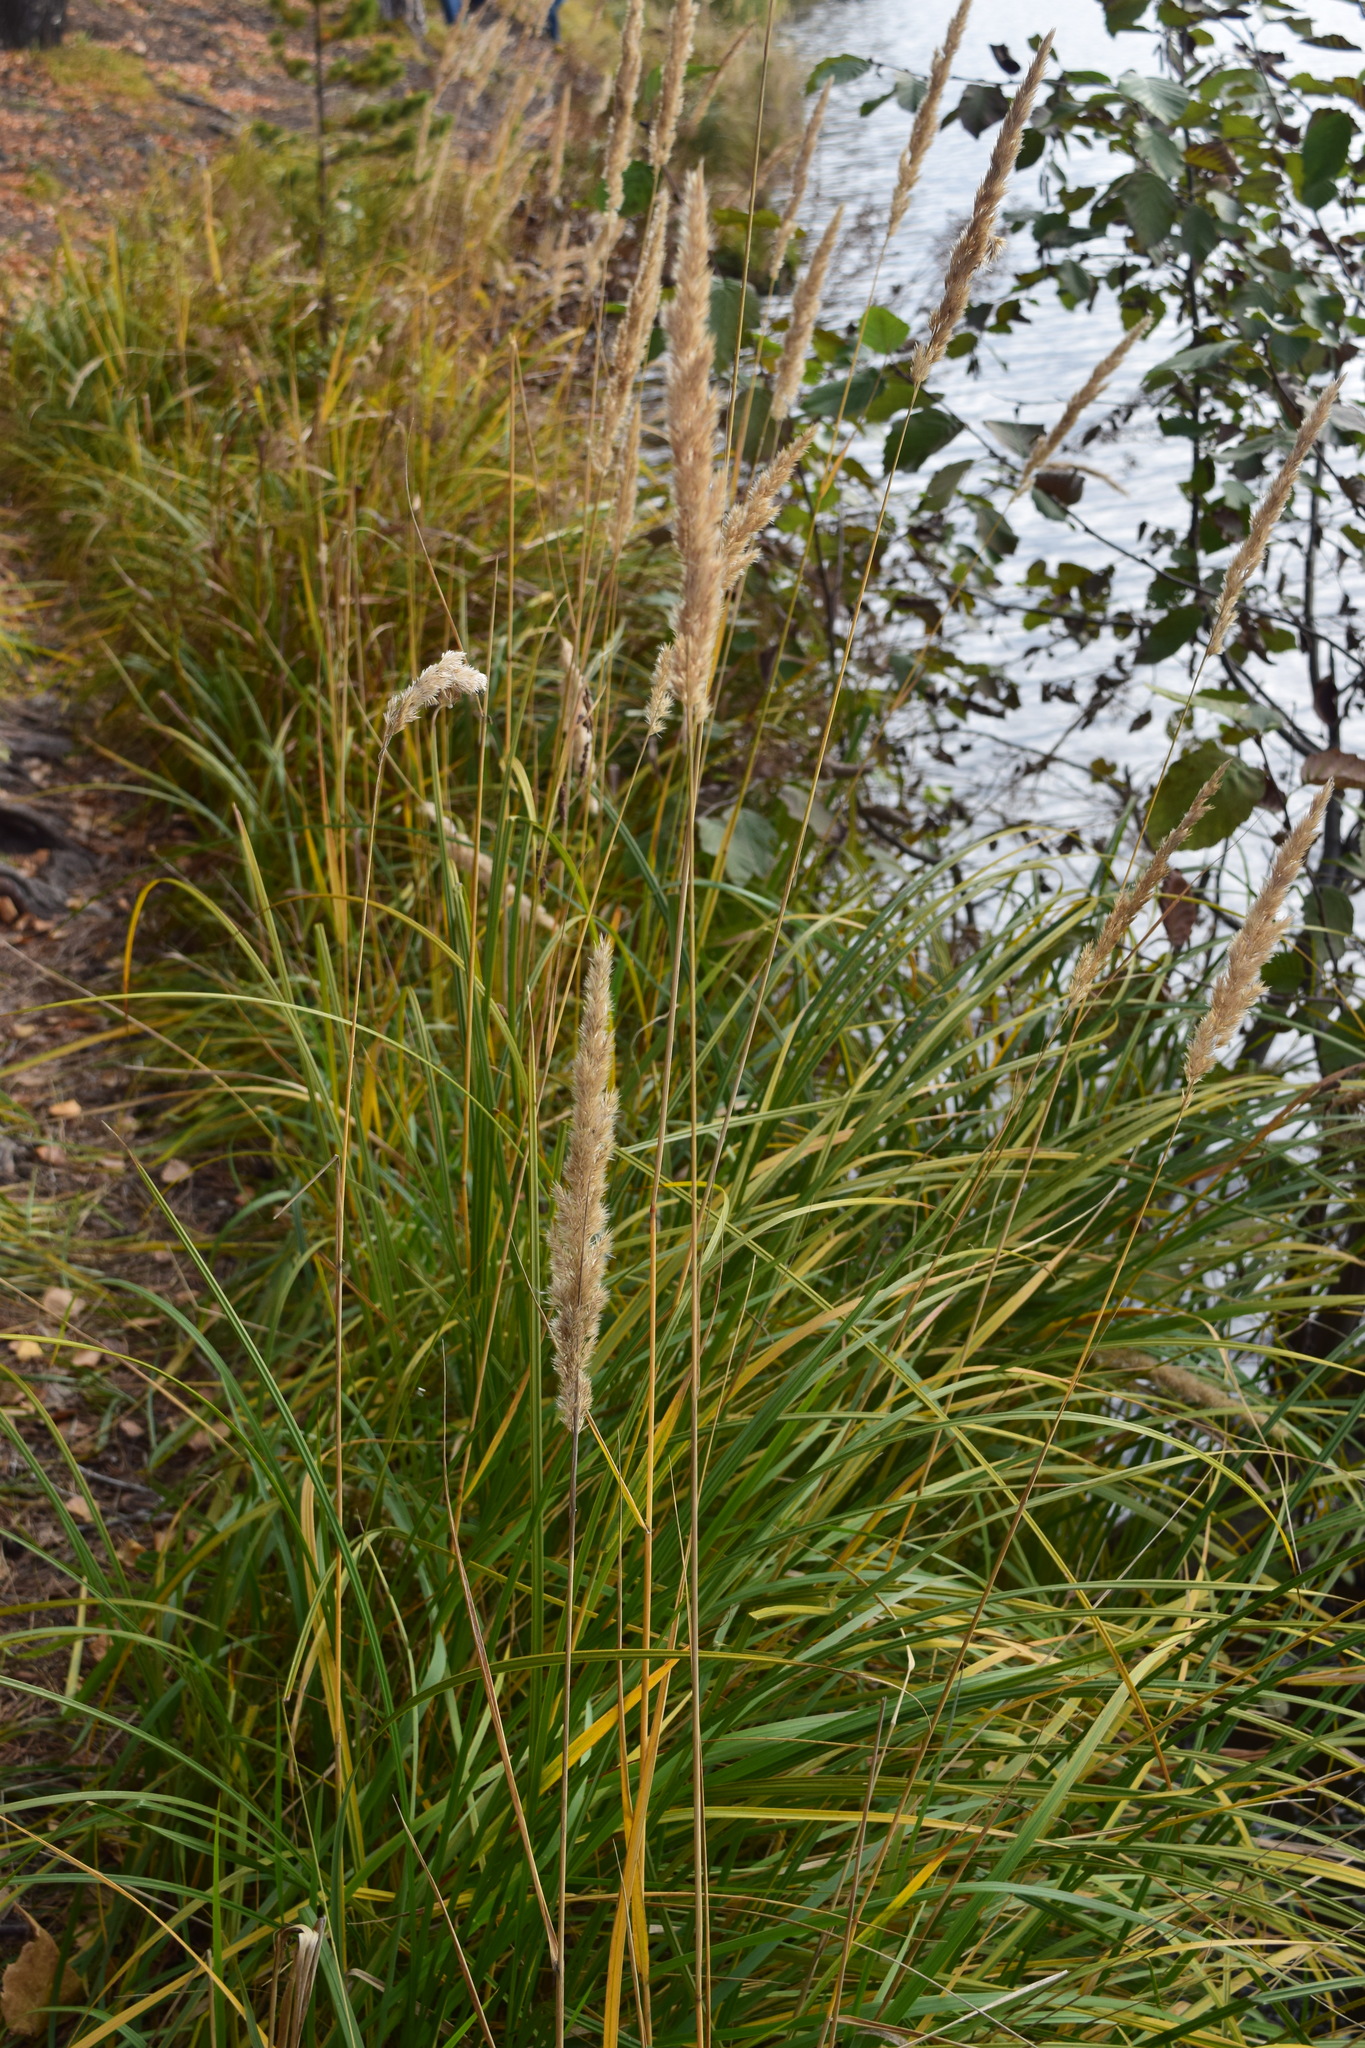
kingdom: Plantae
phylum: Tracheophyta
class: Liliopsida
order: Poales
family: Poaceae
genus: Calamagrostis
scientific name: Calamagrostis purpurea
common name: Scandinavian small-reed
